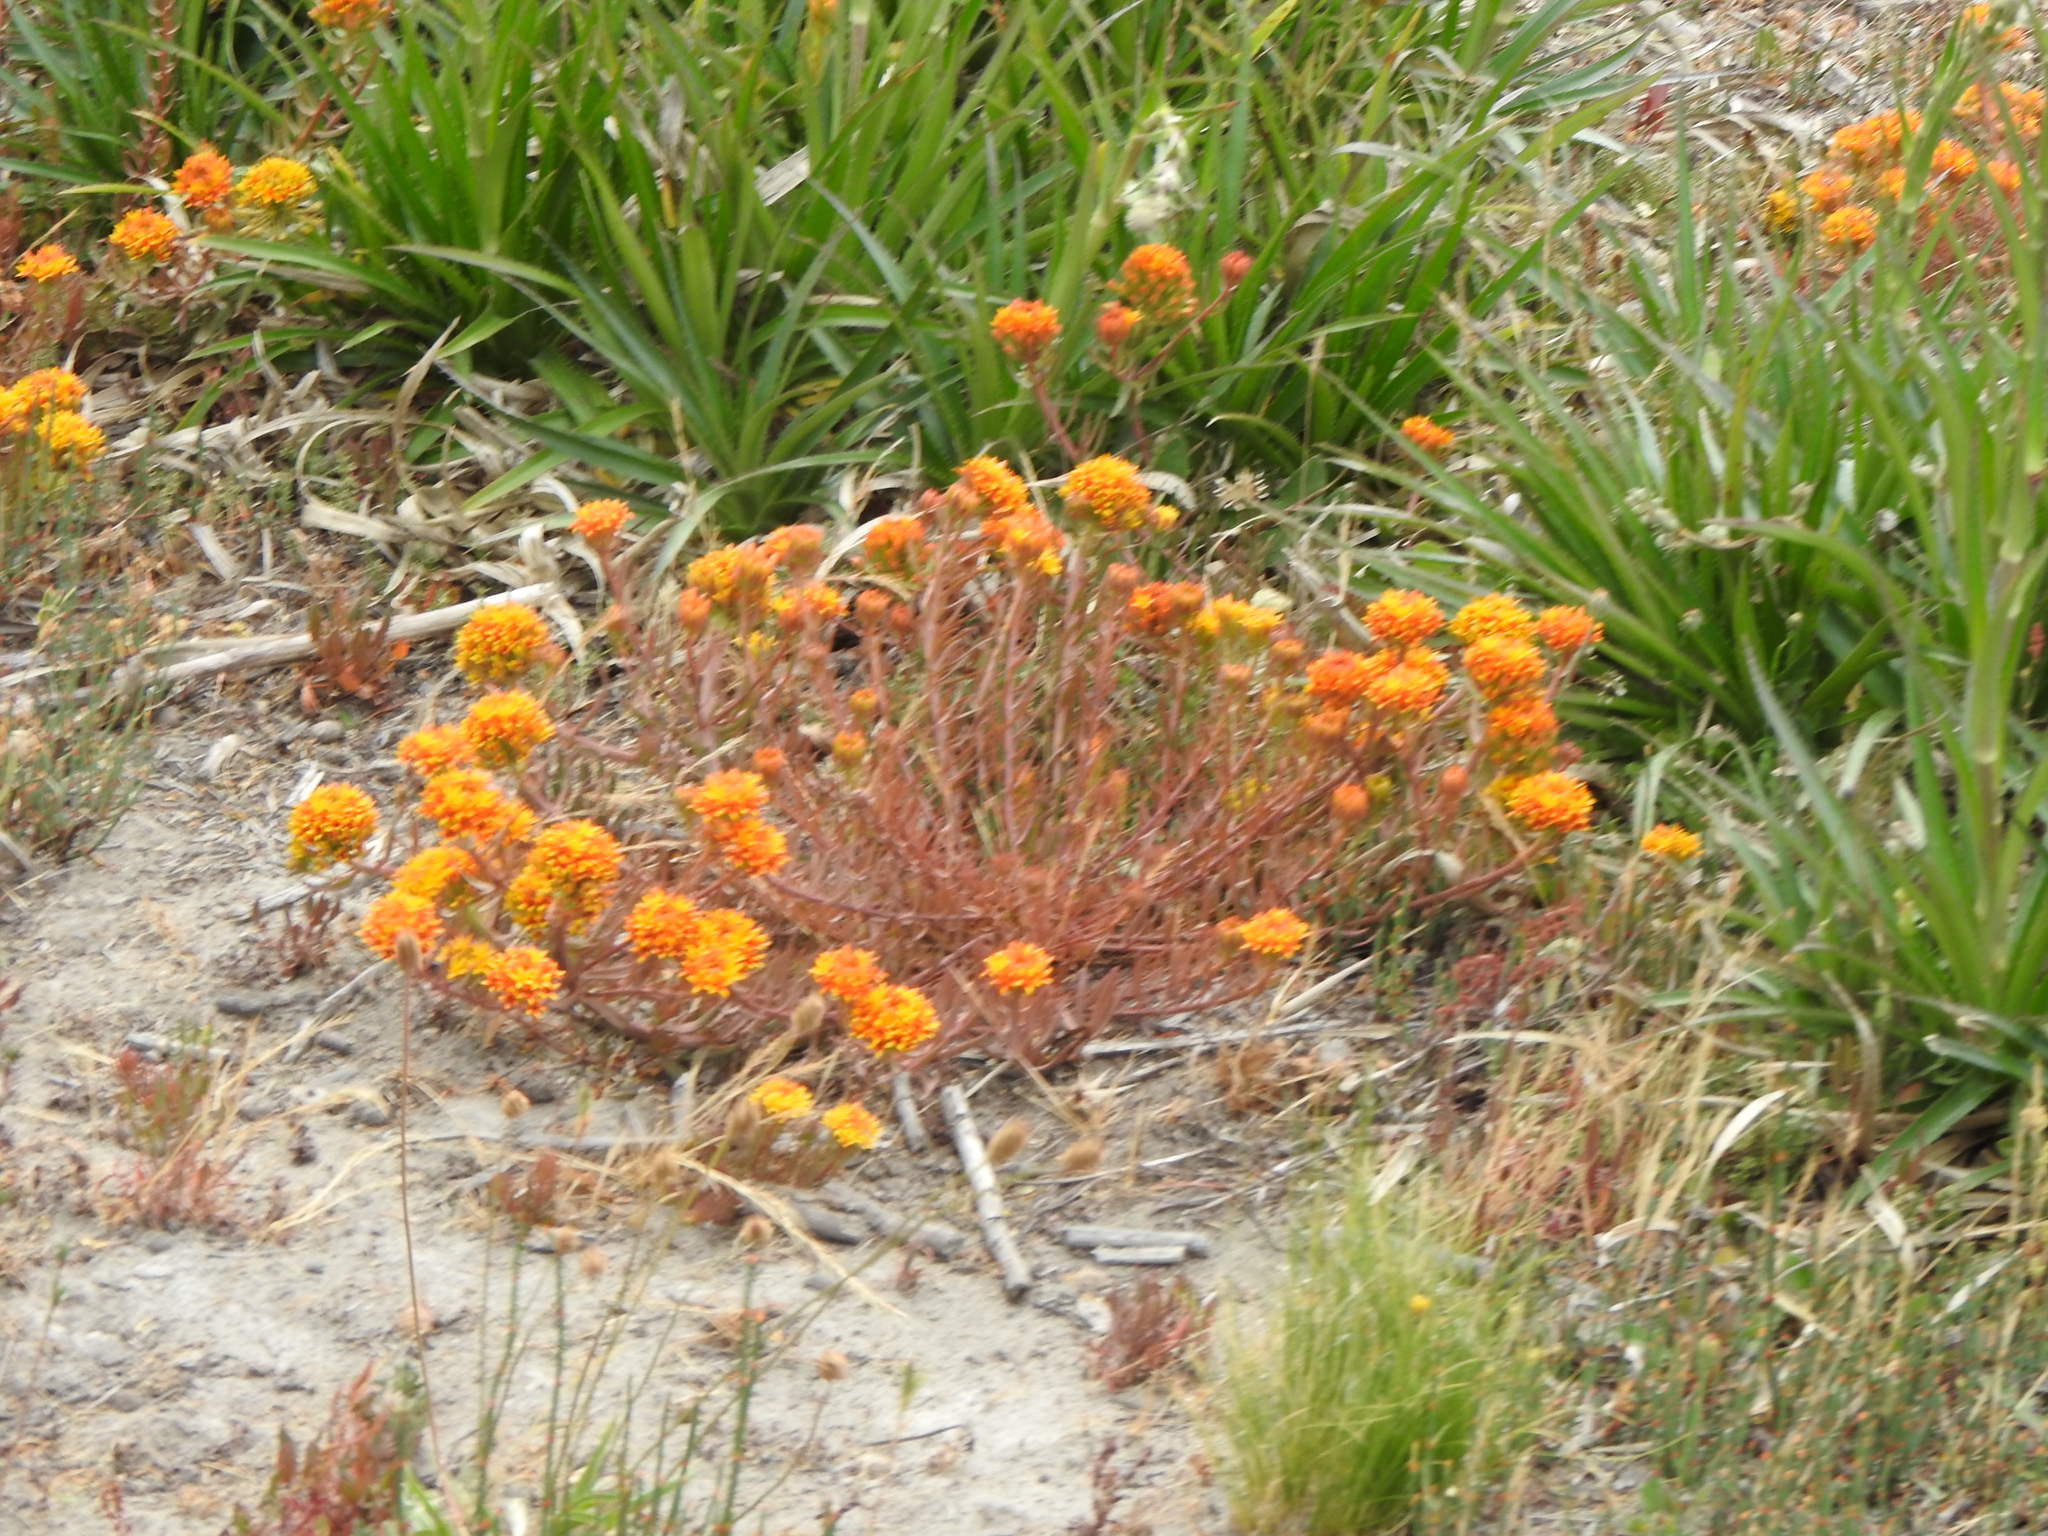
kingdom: Plantae
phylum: Tracheophyta
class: Magnoliopsida
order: Santalales
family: Schoepfiaceae
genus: Quinchamalium
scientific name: Quinchamalium chilense
